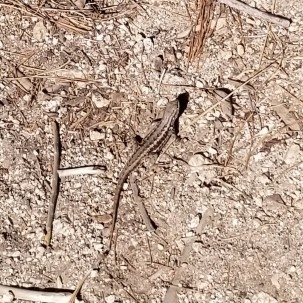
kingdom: Animalia
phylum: Chordata
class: Squamata
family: Phrynosomatidae
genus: Sceloporus
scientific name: Sceloporus graciosus
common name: Sagebrush lizard
